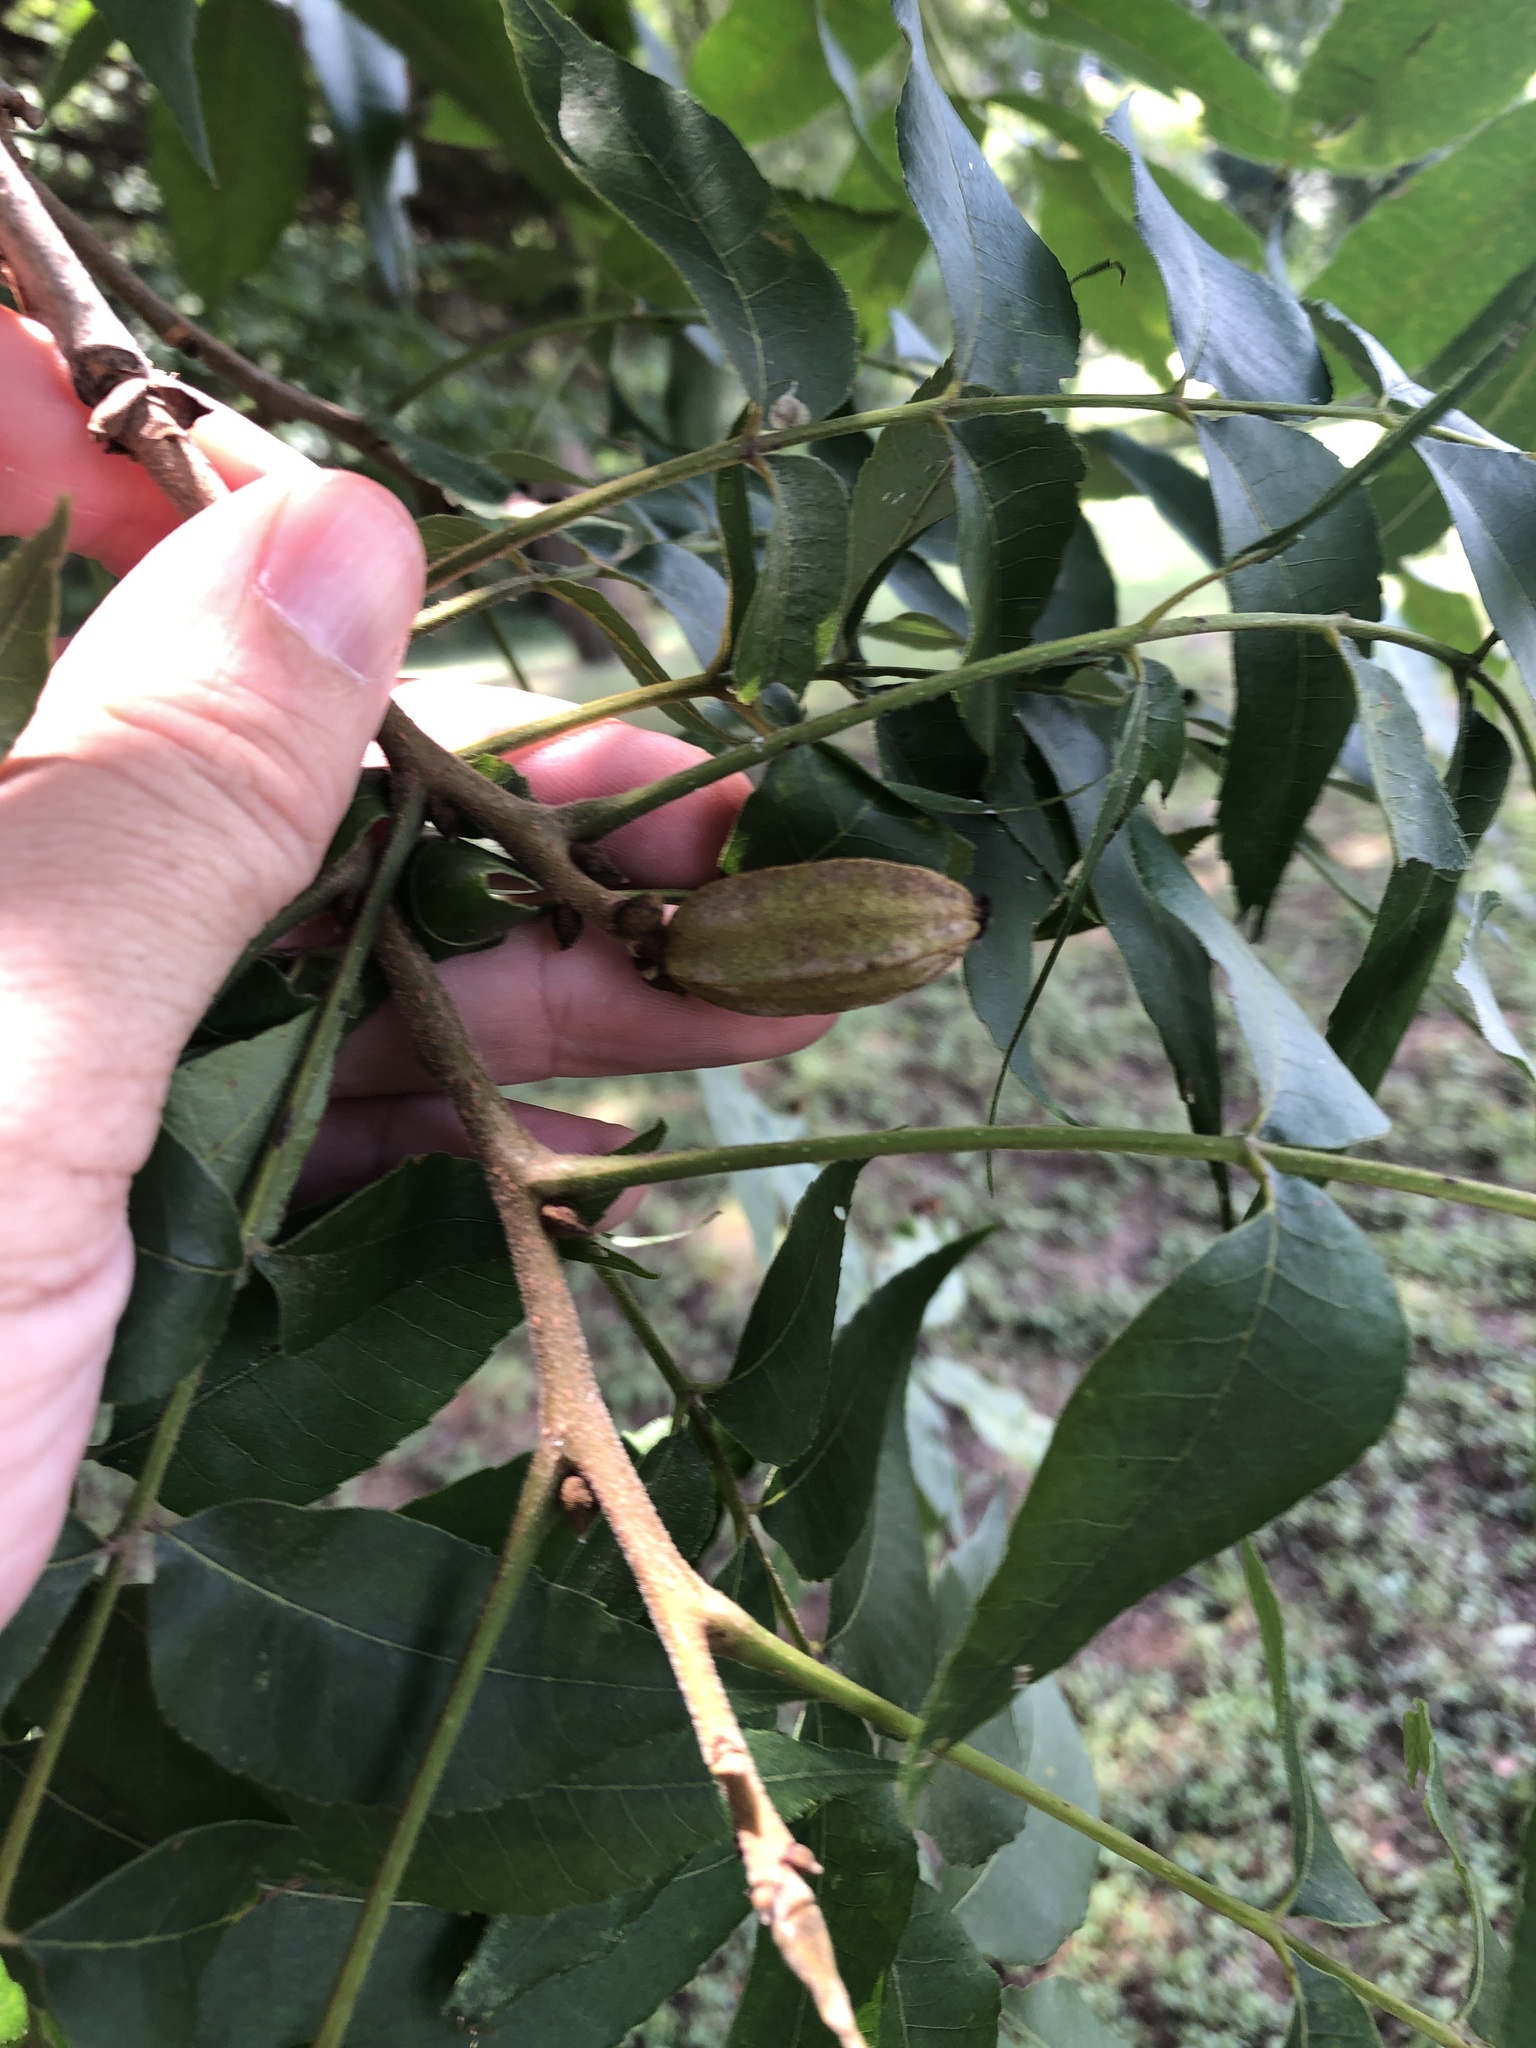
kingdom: Plantae
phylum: Tracheophyta
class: Magnoliopsida
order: Fagales
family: Juglandaceae
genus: Carya
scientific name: Carya illinoinensis
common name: Pecan
